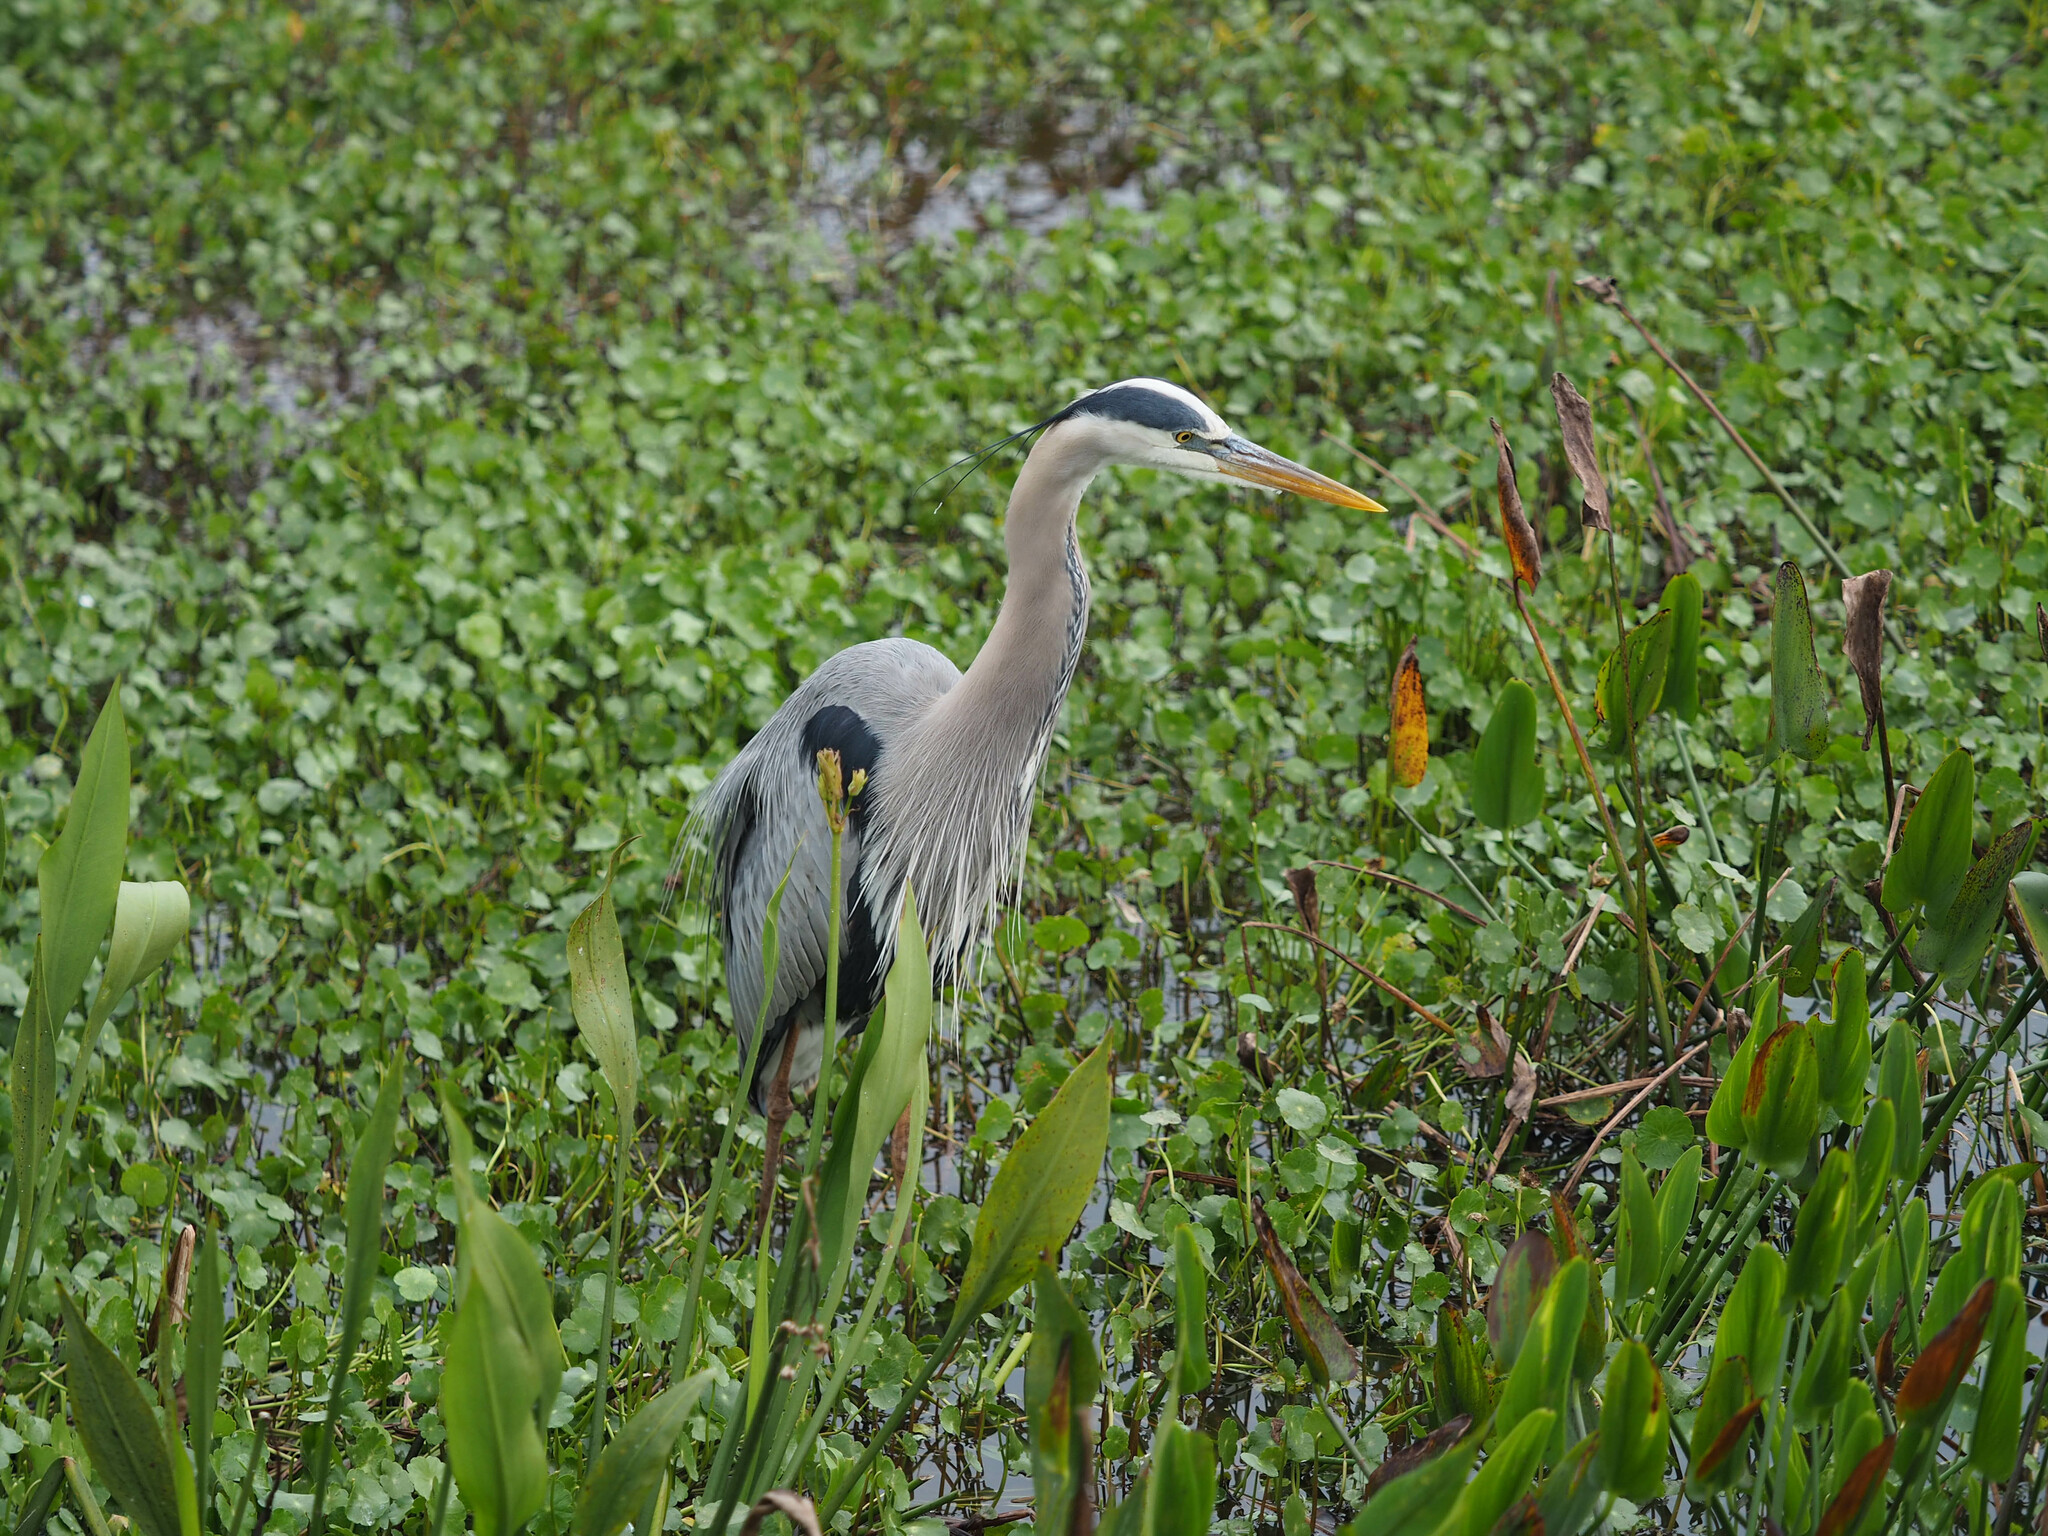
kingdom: Animalia
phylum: Chordata
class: Aves
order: Pelecaniformes
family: Ardeidae
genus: Ardea
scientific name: Ardea herodias
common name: Great blue heron
